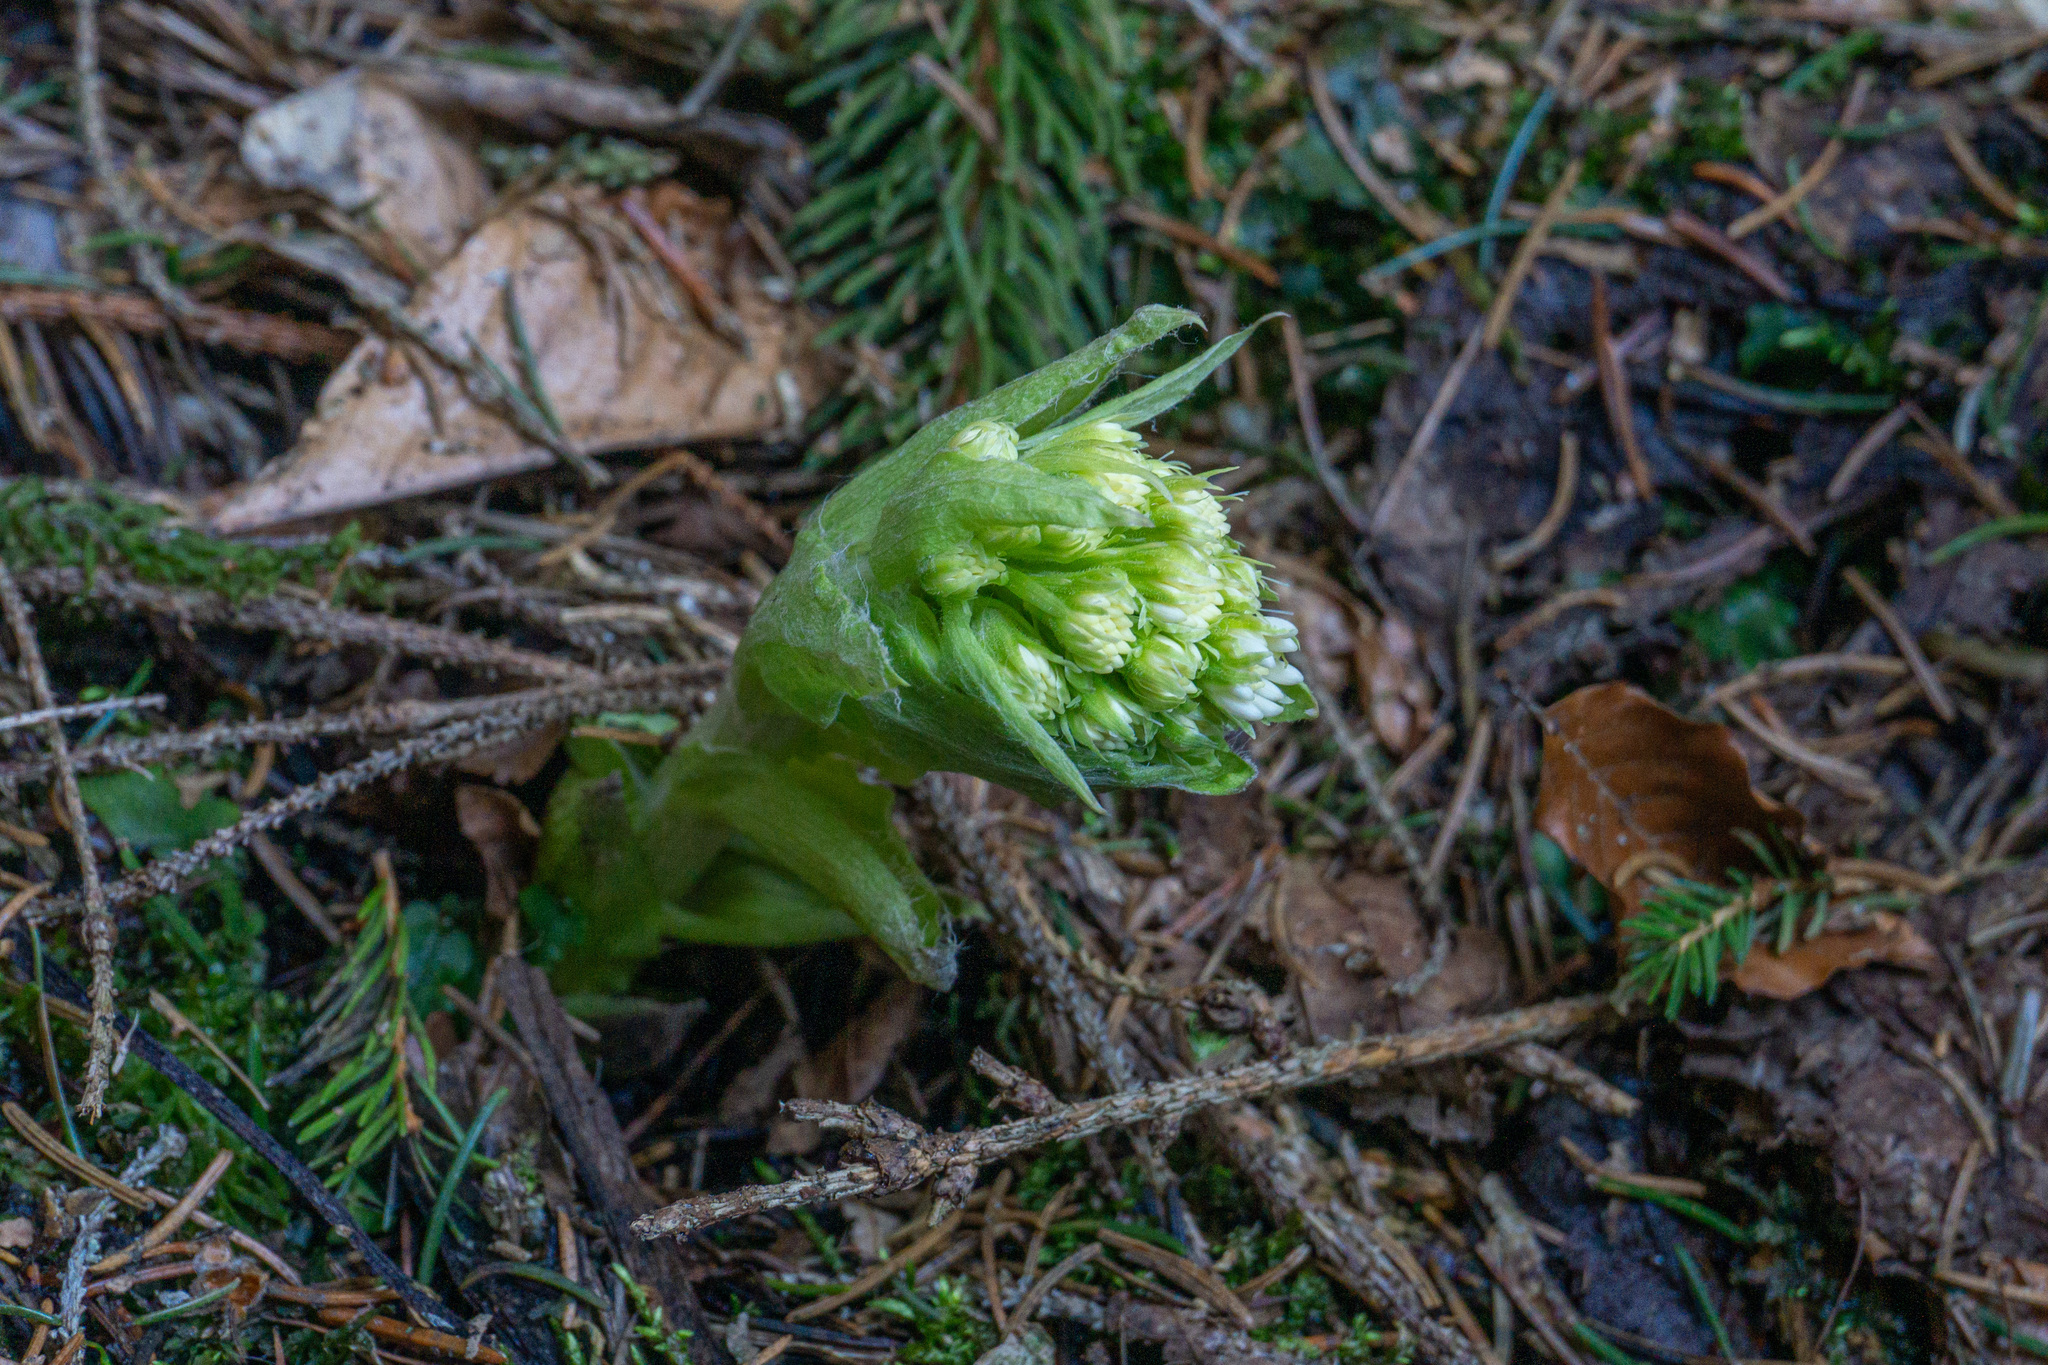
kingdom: Plantae
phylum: Tracheophyta
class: Magnoliopsida
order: Asterales
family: Asteraceae
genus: Petasites
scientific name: Petasites albus
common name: White butterbur
